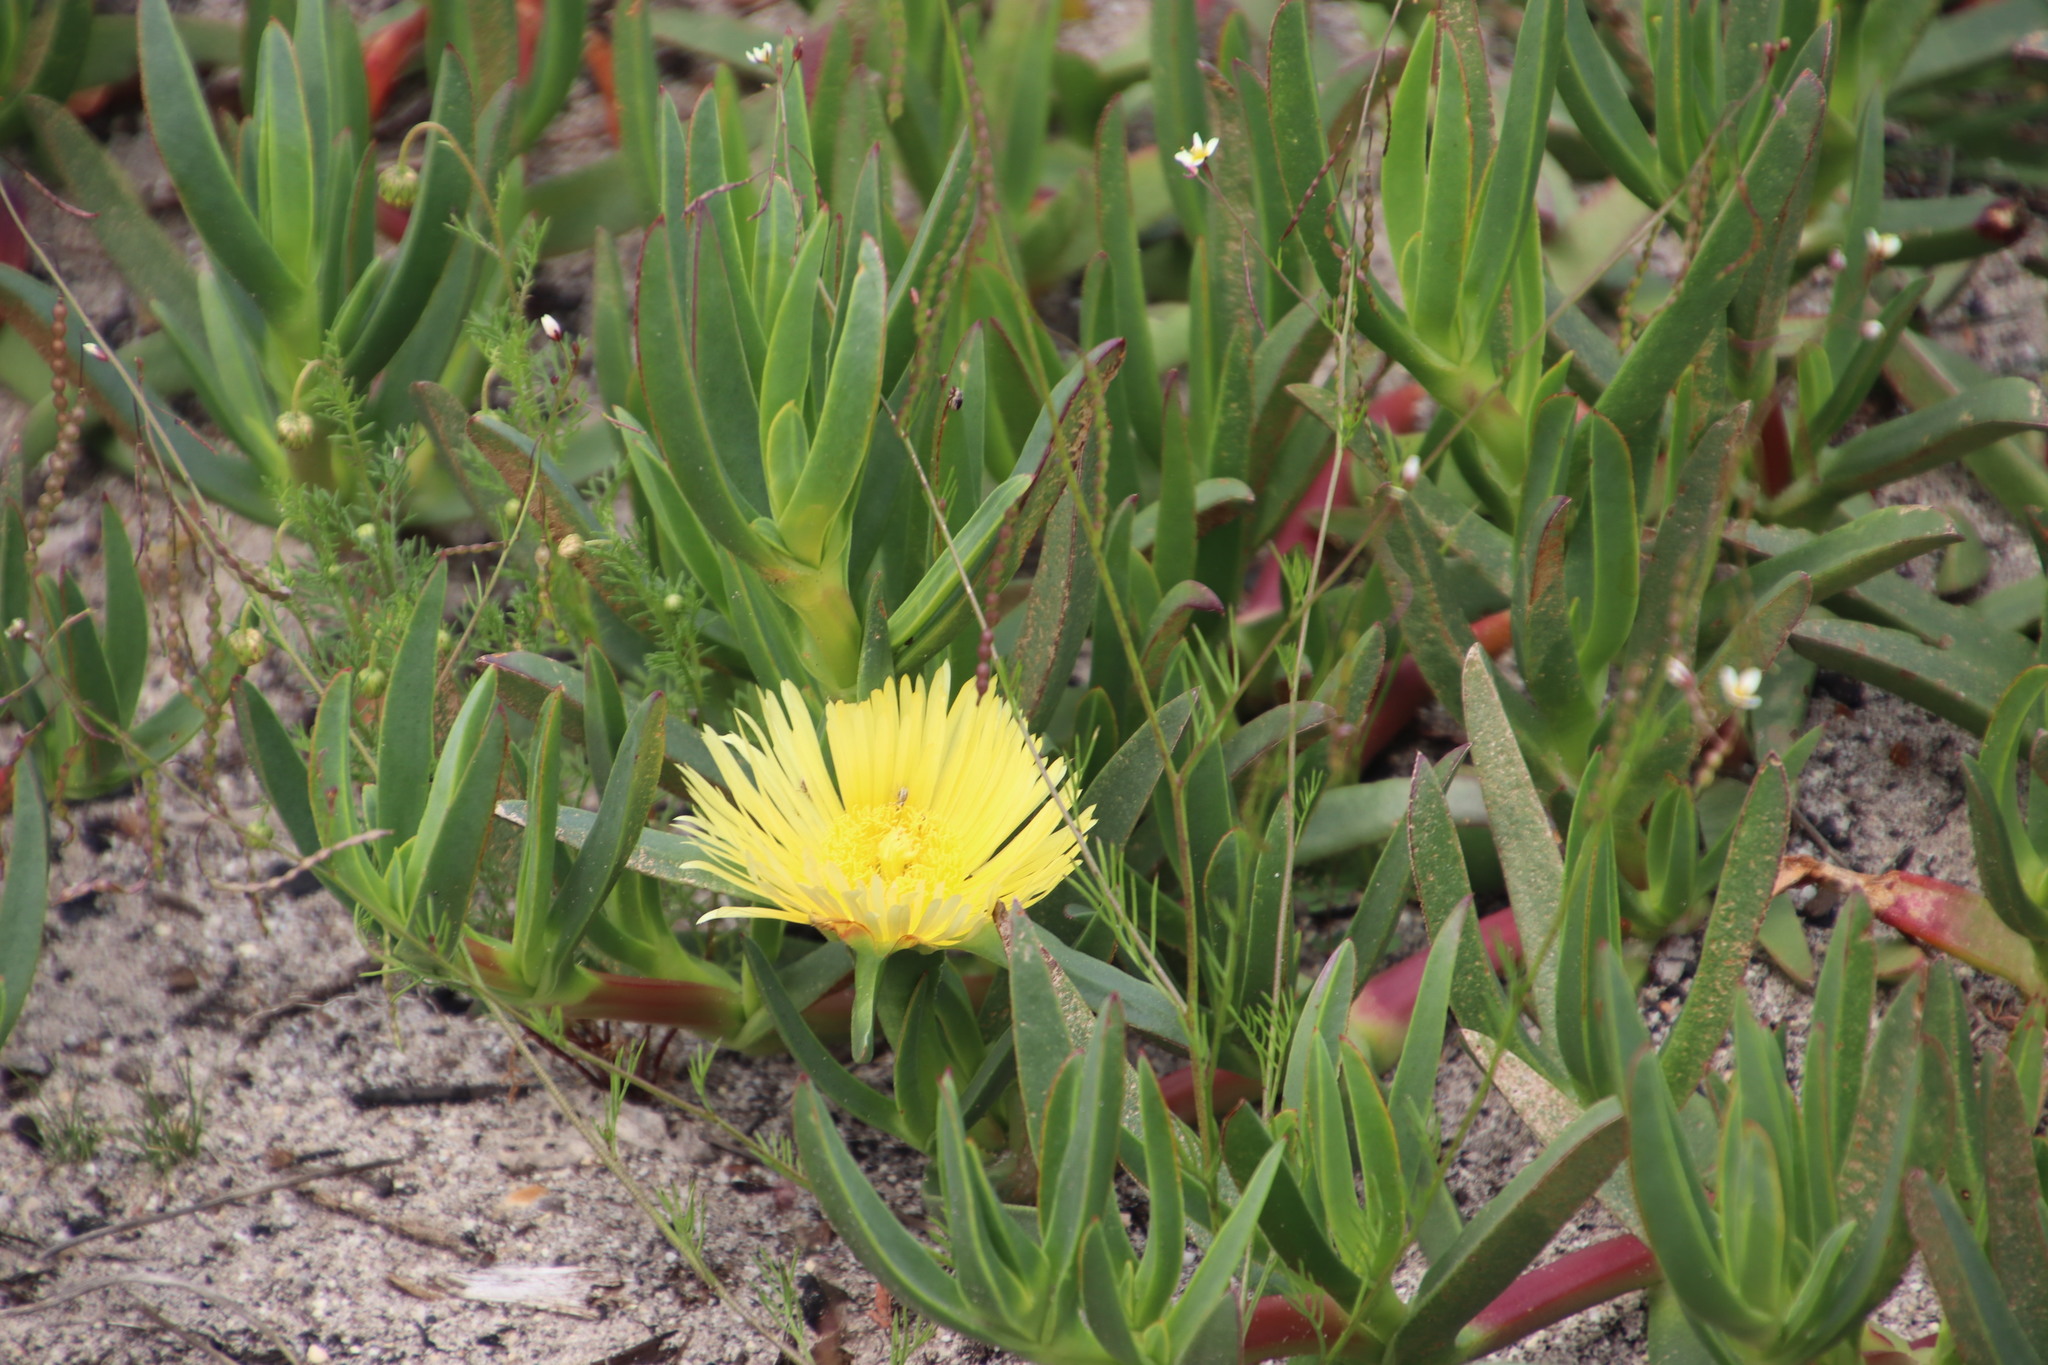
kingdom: Plantae
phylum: Tracheophyta
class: Magnoliopsida
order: Caryophyllales
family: Aizoaceae
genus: Carpobrotus
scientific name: Carpobrotus edulis
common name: Hottentot-fig
